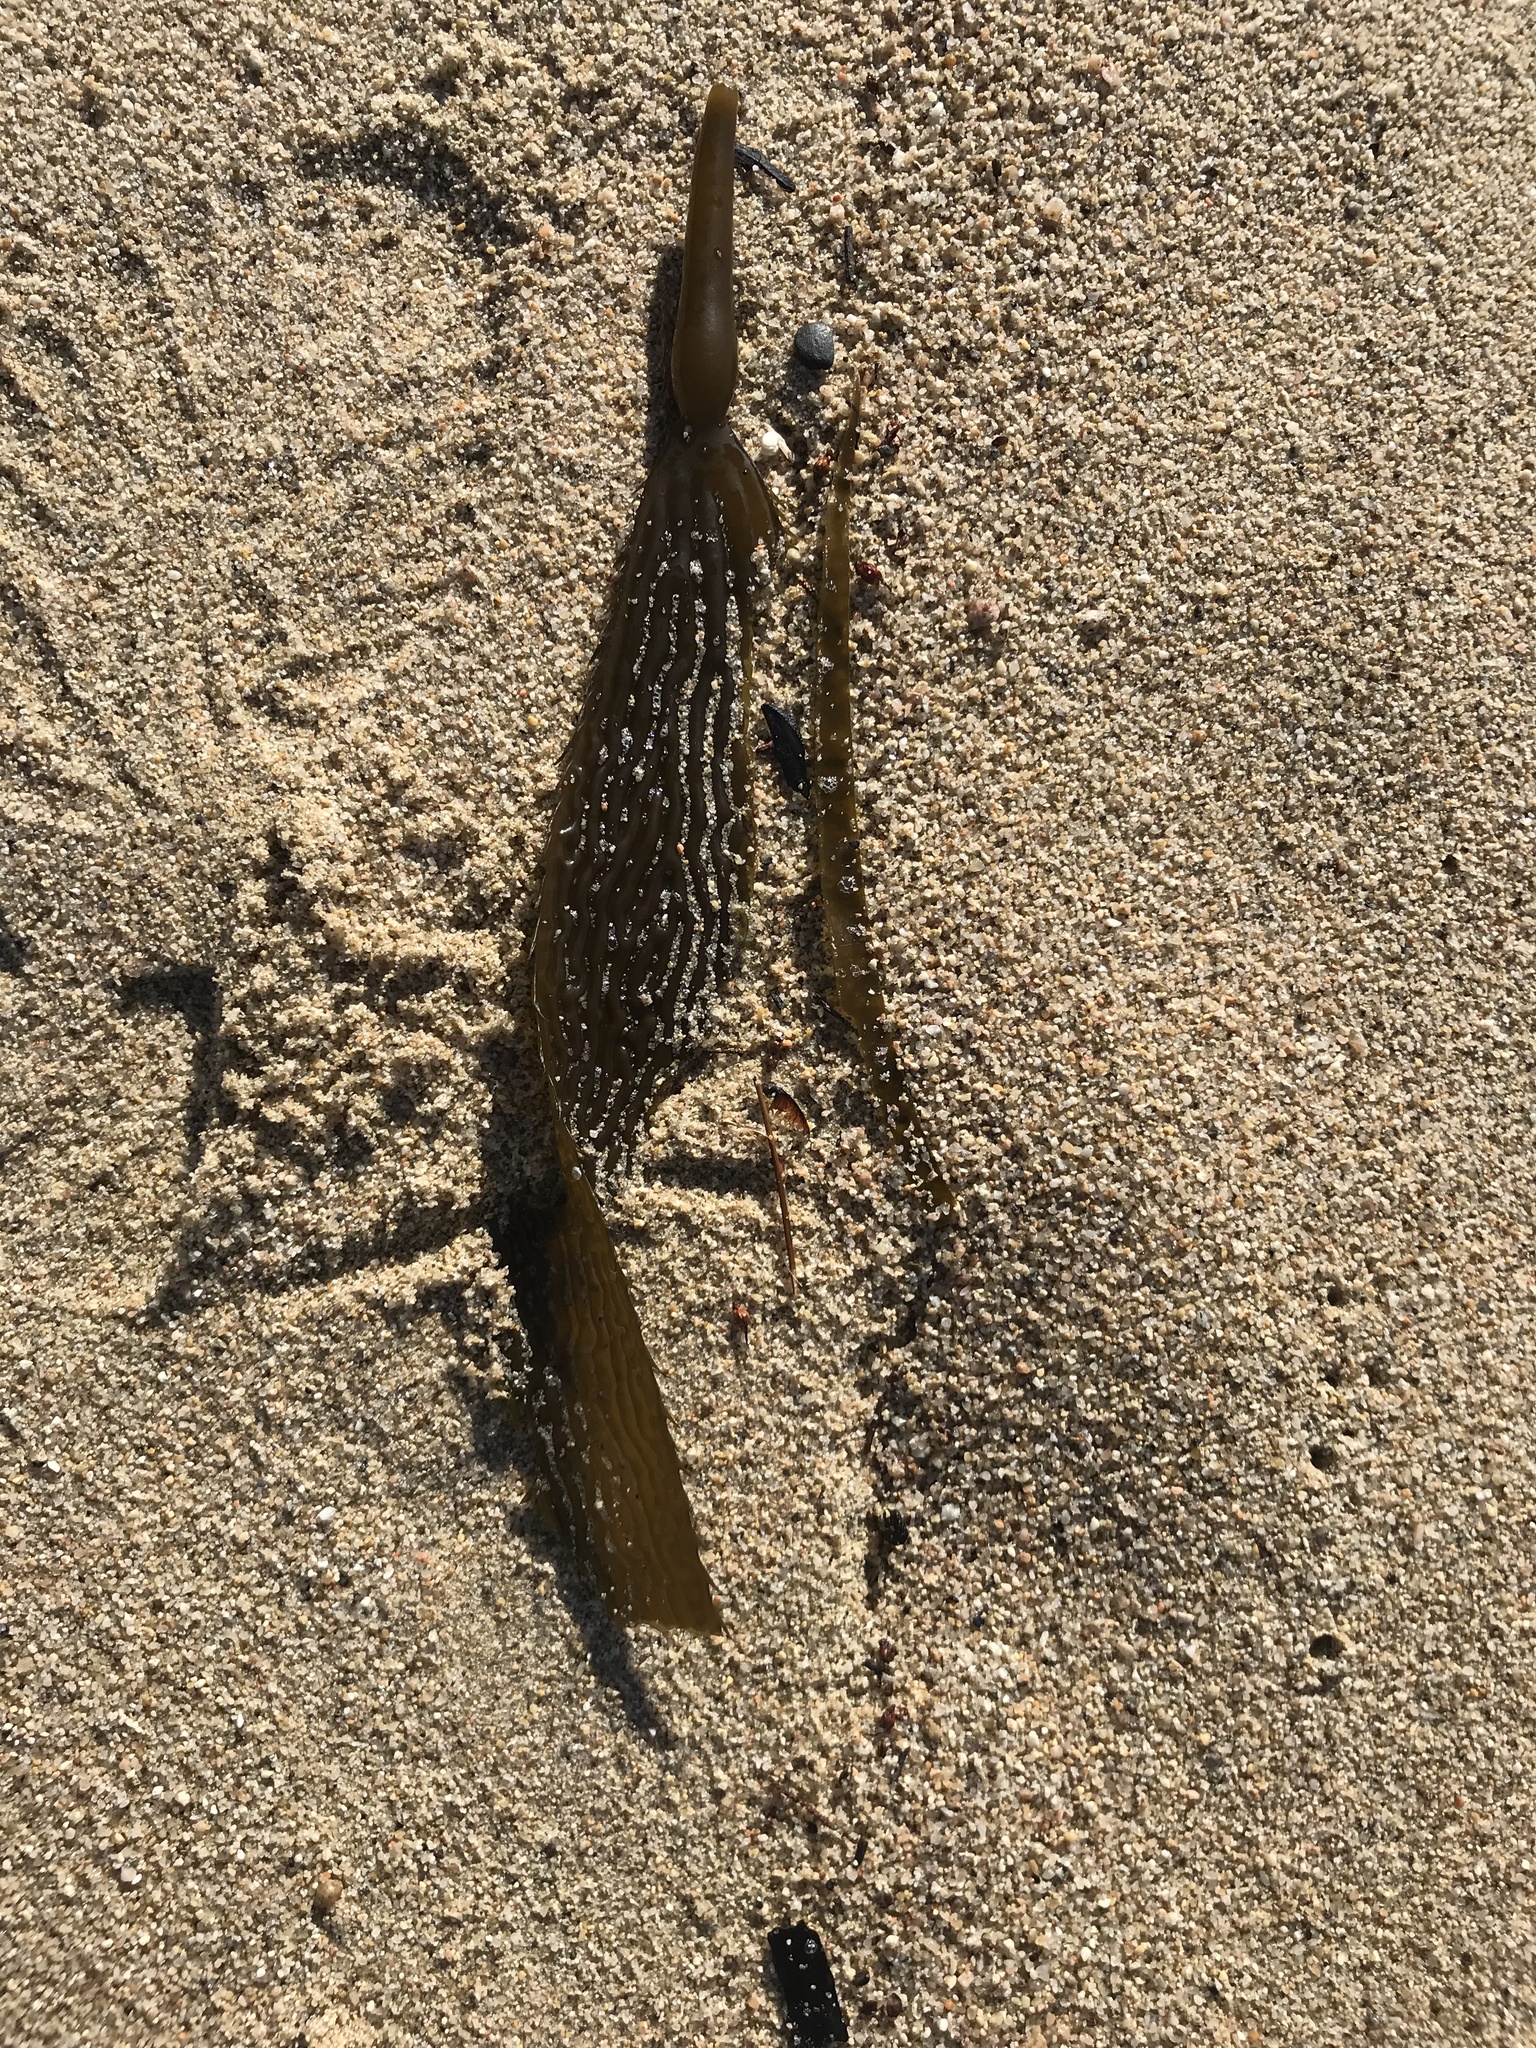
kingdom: Chromista
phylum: Ochrophyta
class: Phaeophyceae
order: Laminariales
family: Laminariaceae
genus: Macrocystis
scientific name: Macrocystis pyrifera
